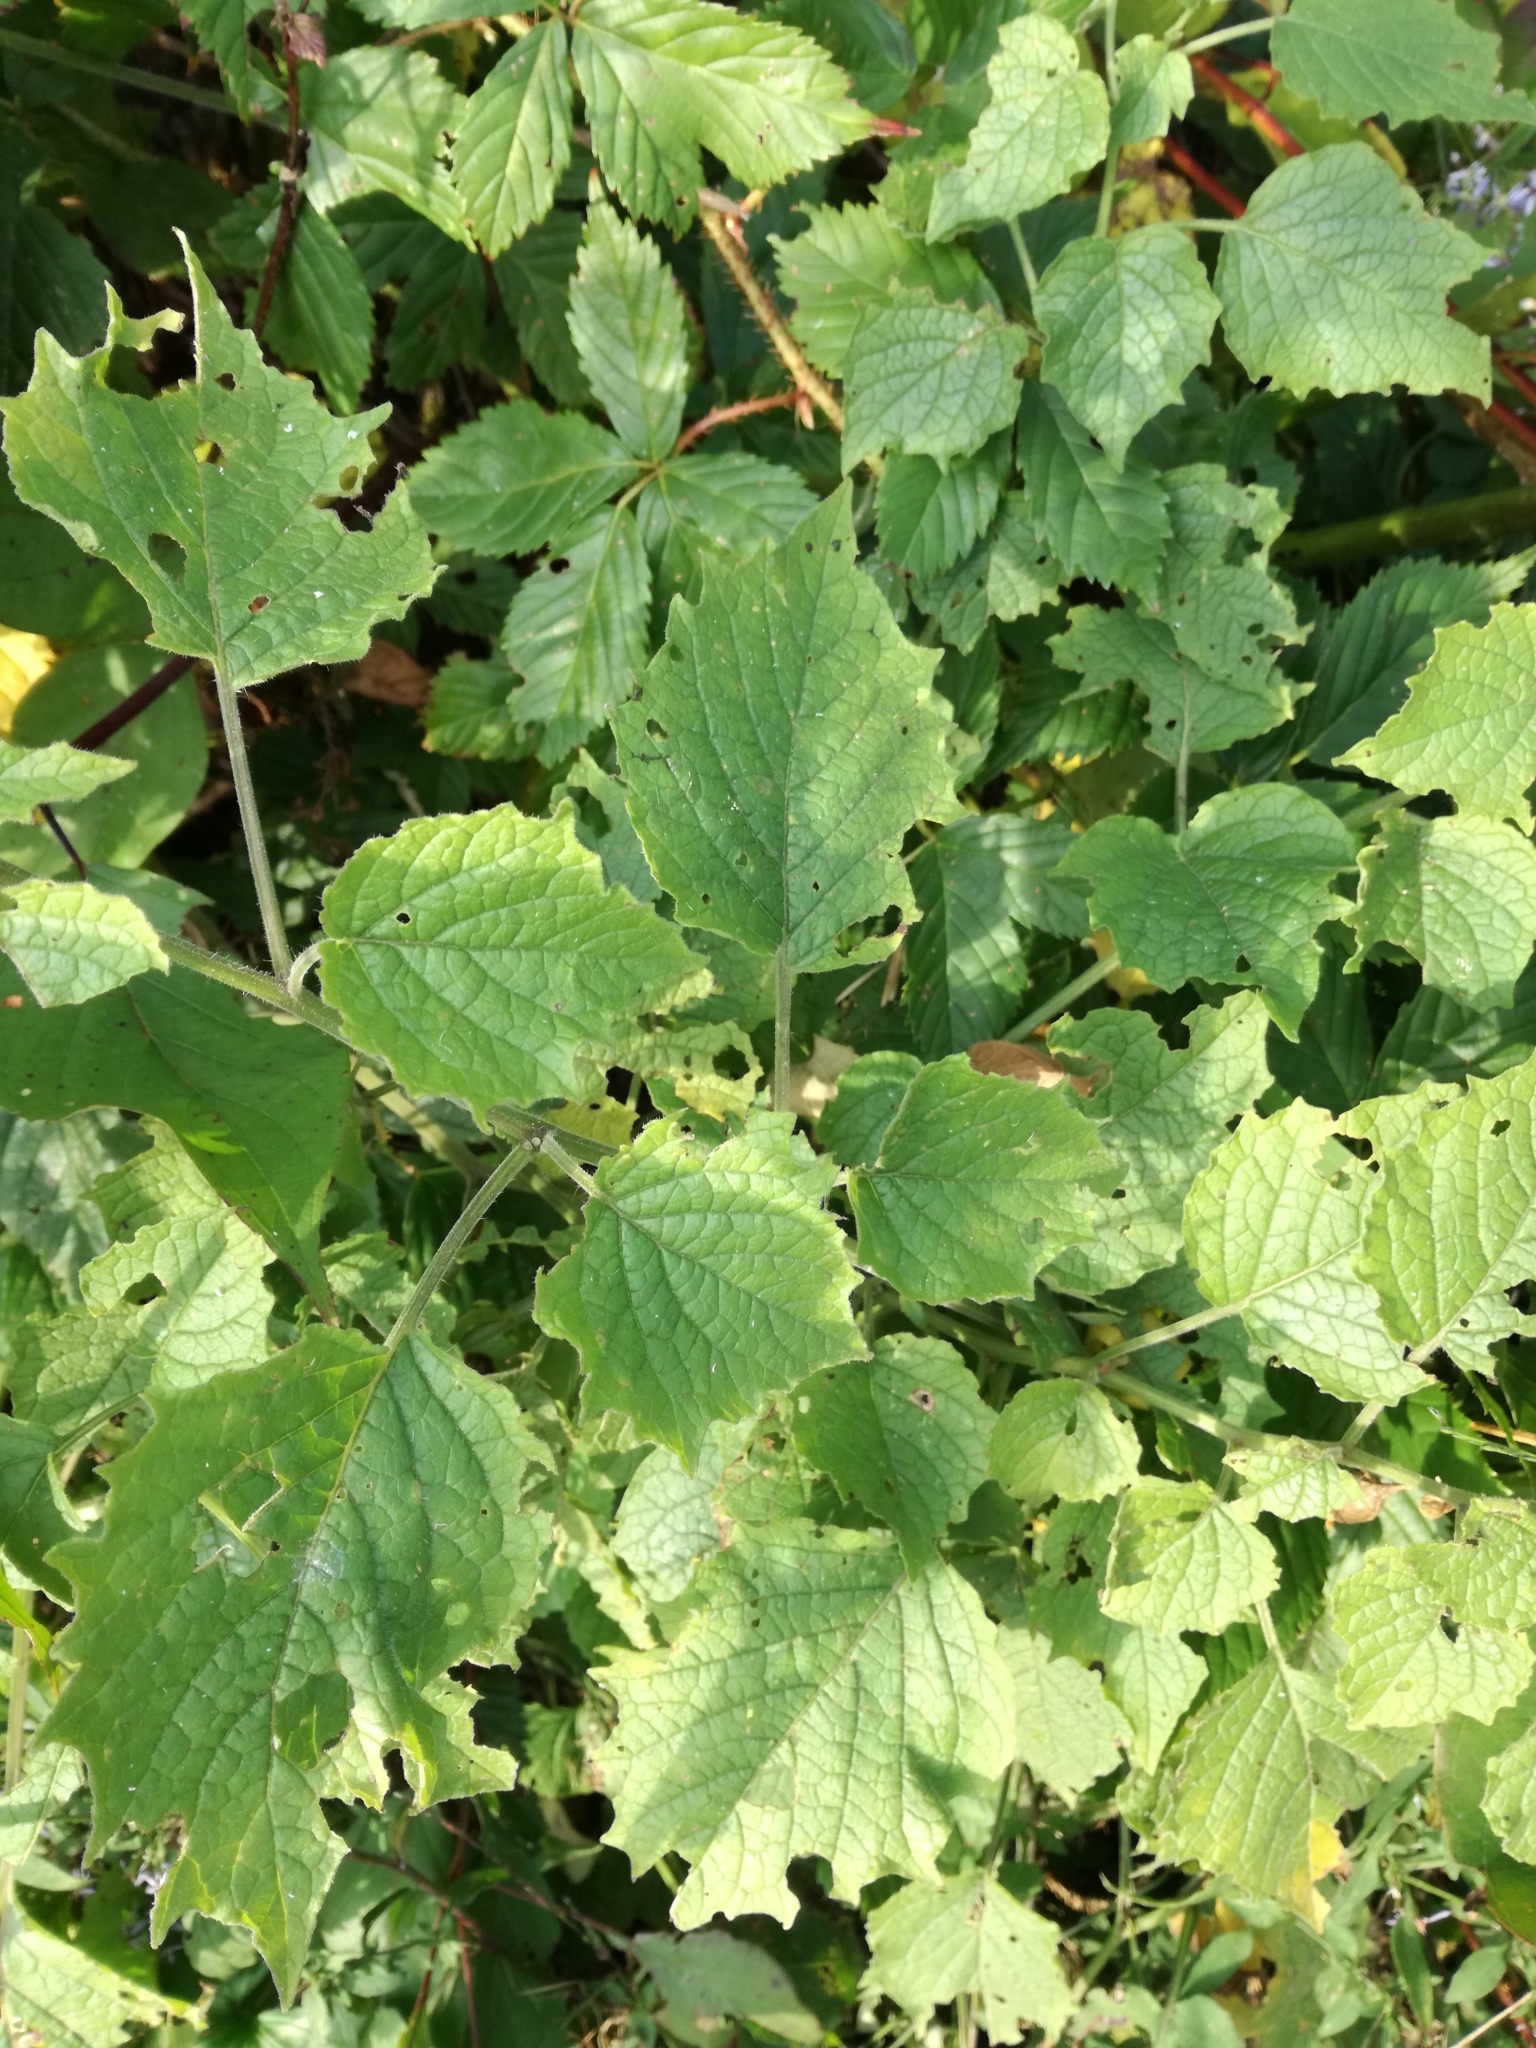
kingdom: Plantae
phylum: Tracheophyta
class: Magnoliopsida
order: Solanales
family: Solanaceae
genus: Physalis
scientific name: Physalis heterophylla
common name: Clammy ground-cherry
